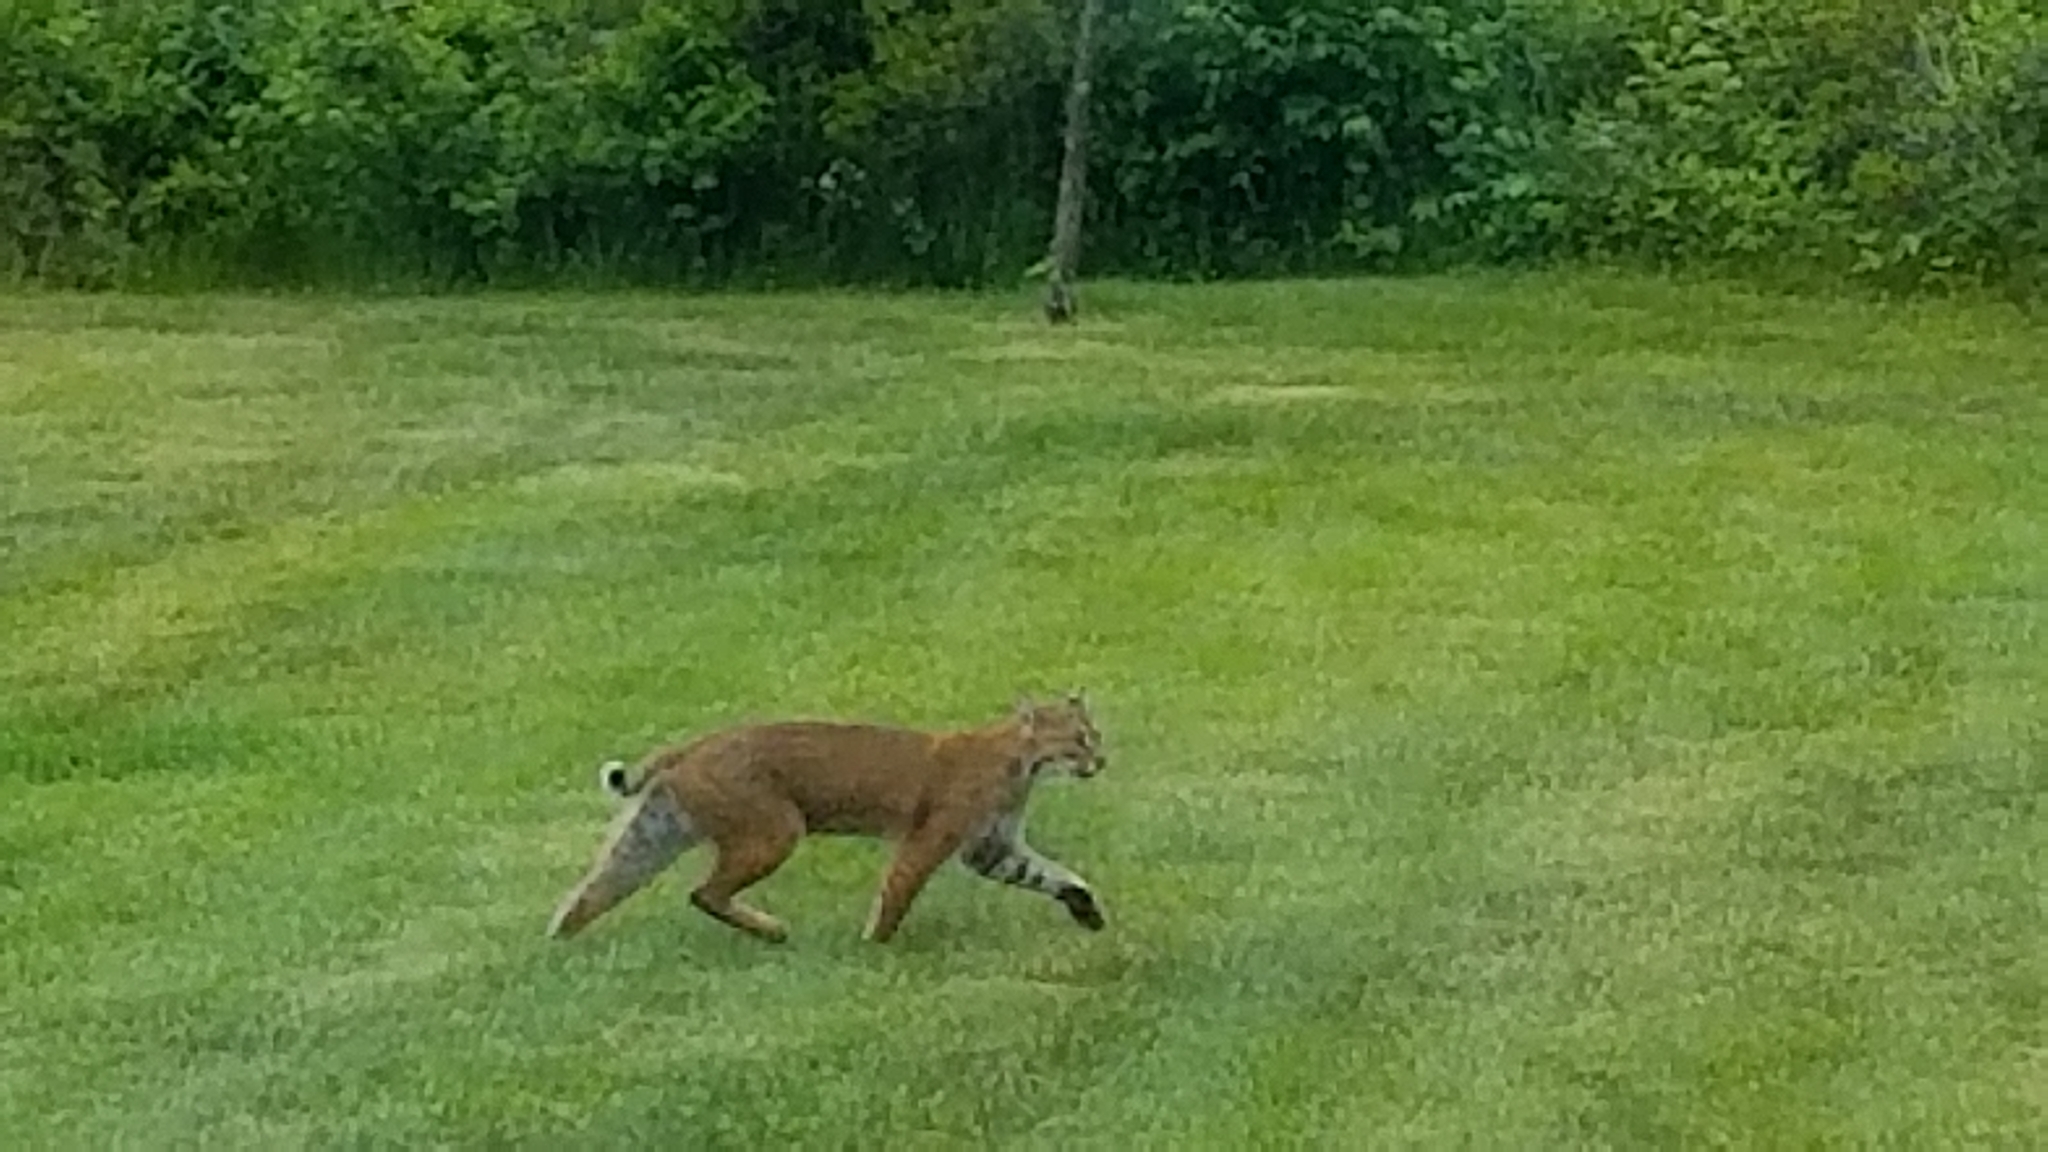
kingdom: Animalia
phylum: Chordata
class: Mammalia
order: Carnivora
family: Felidae
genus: Lynx
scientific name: Lynx rufus
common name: Bobcat
